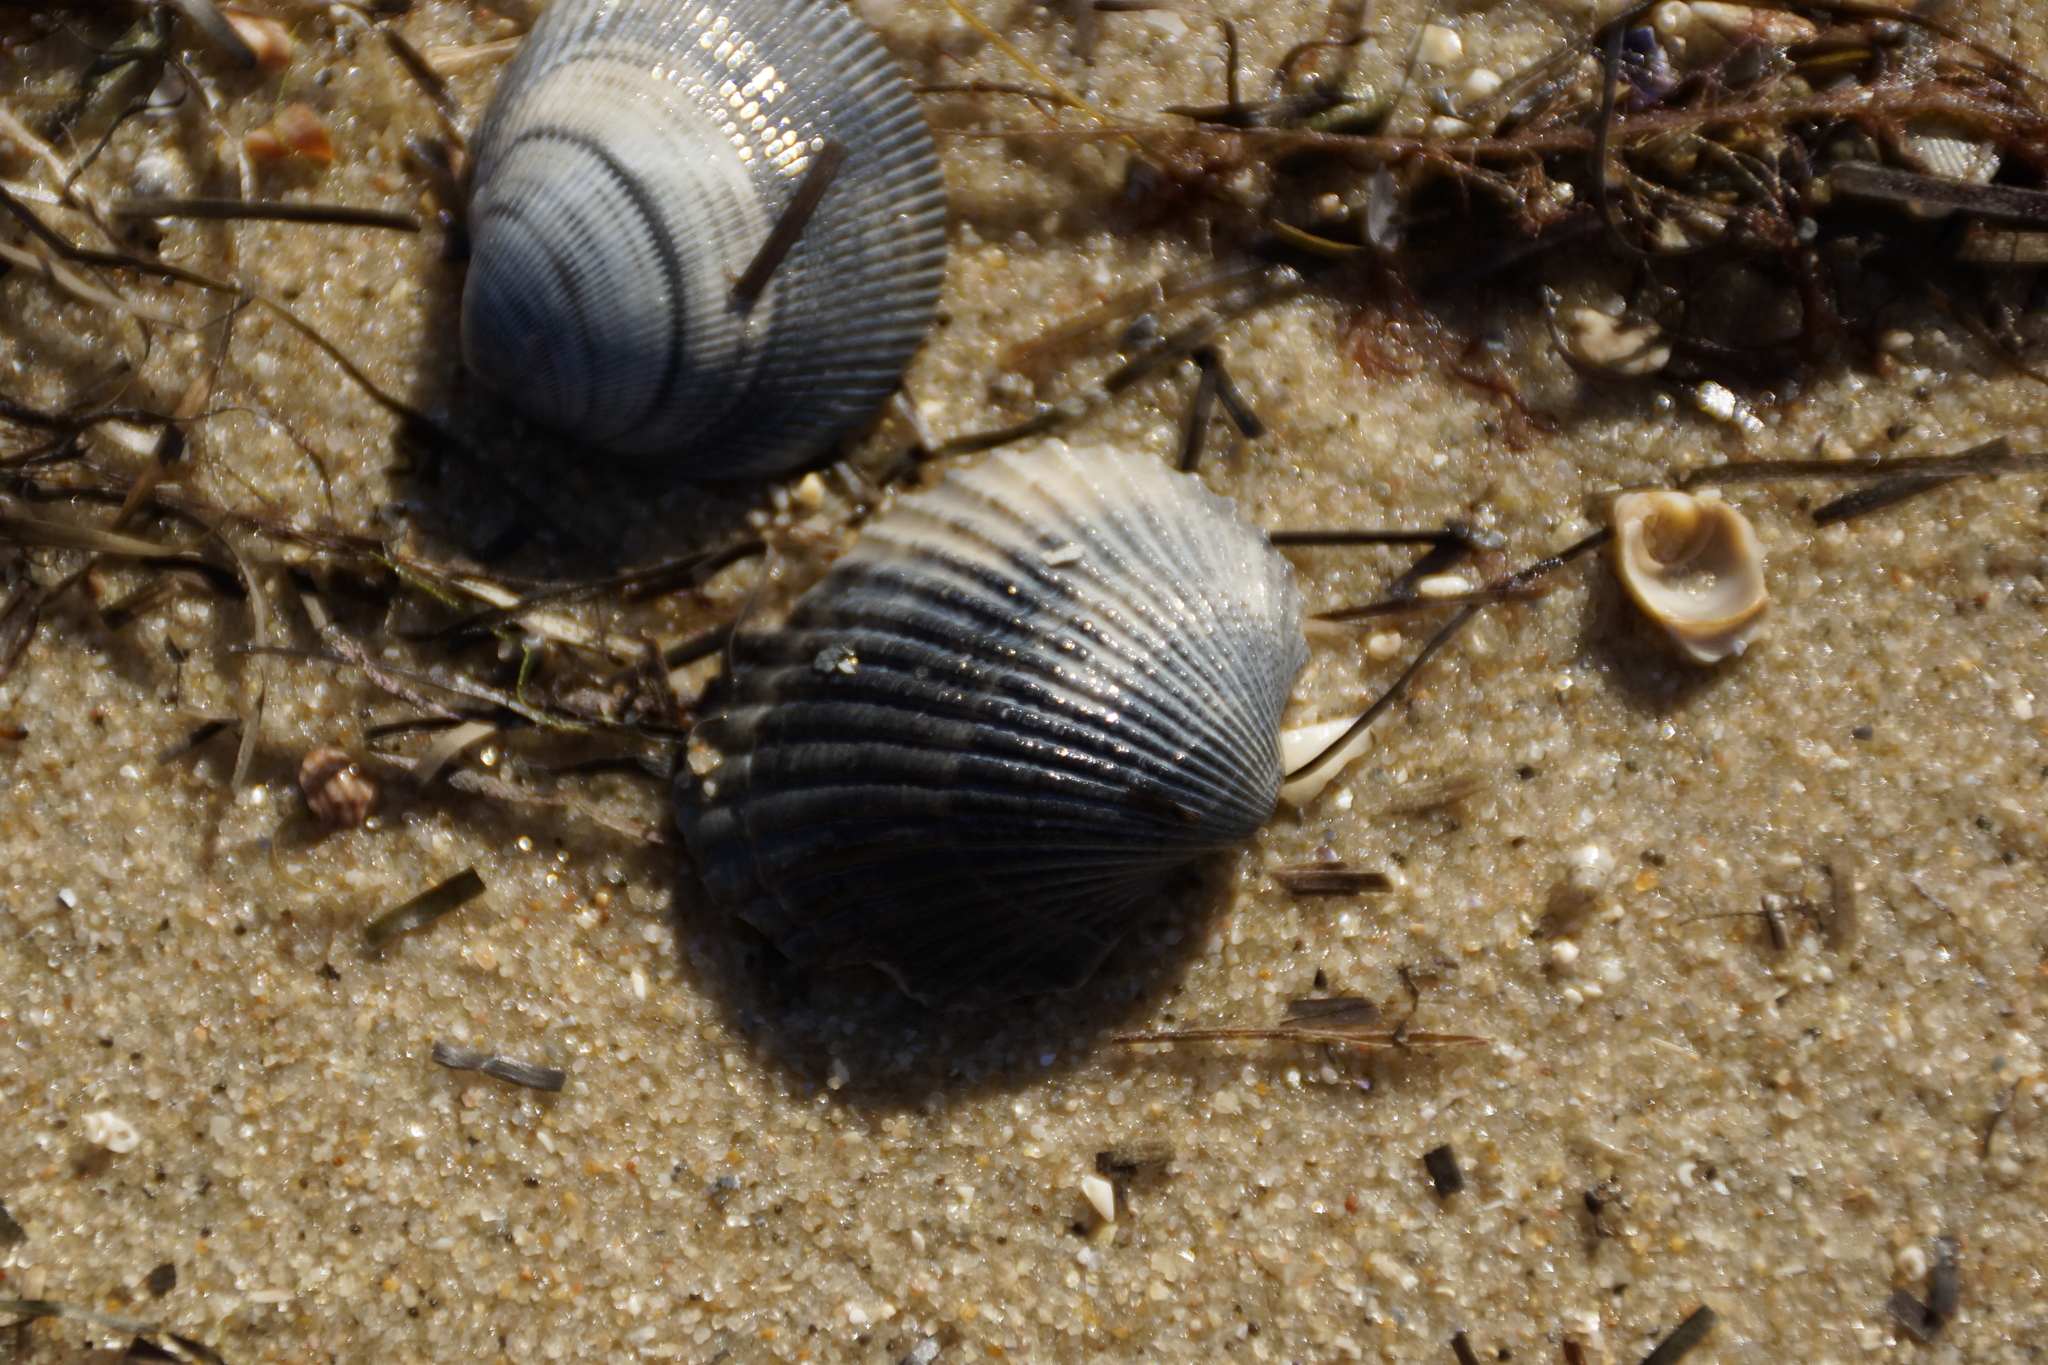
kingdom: Animalia
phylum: Mollusca
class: Bivalvia
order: Arcida
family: Arcidae
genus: Anadara
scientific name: Anadara trapezia
